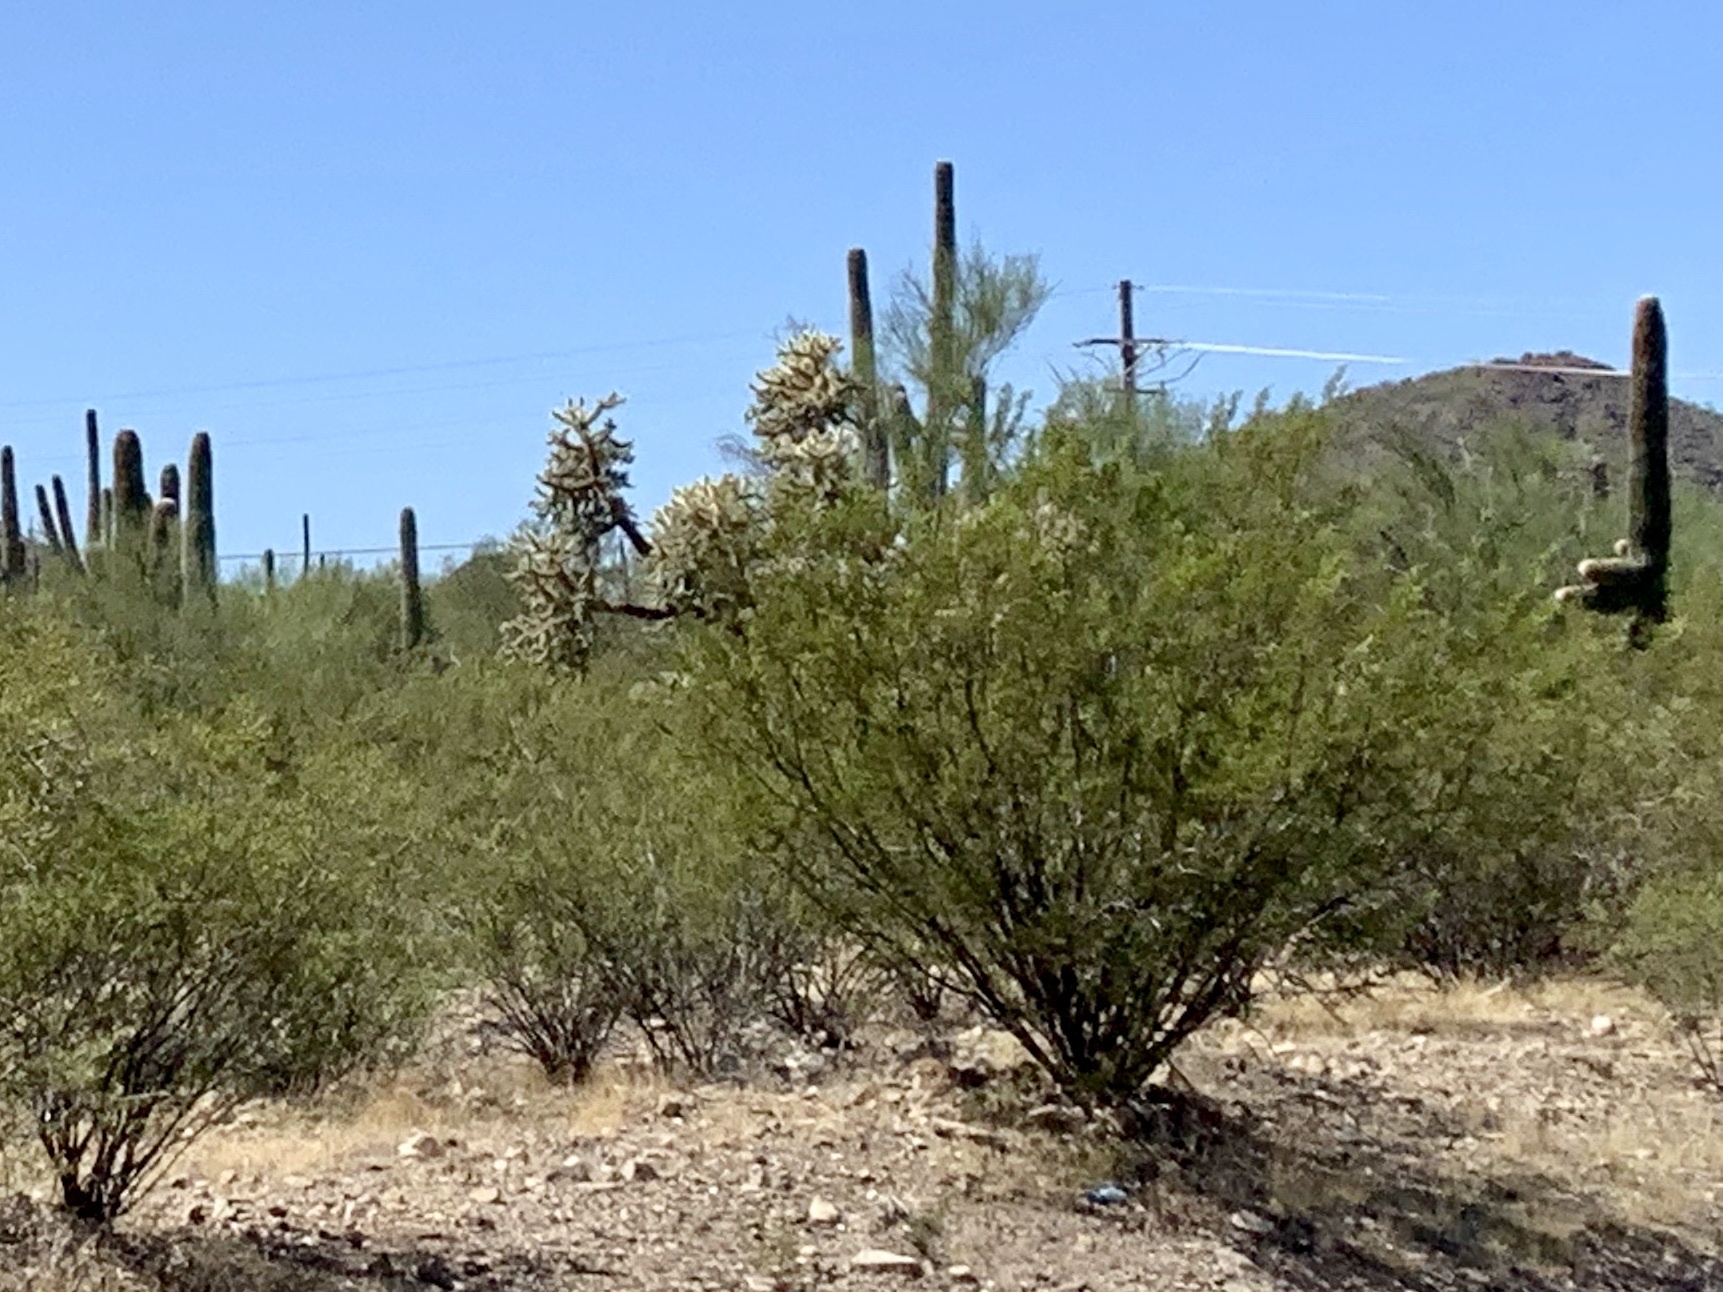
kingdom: Plantae
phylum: Tracheophyta
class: Magnoliopsida
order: Zygophyllales
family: Zygophyllaceae
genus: Larrea
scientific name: Larrea tridentata
